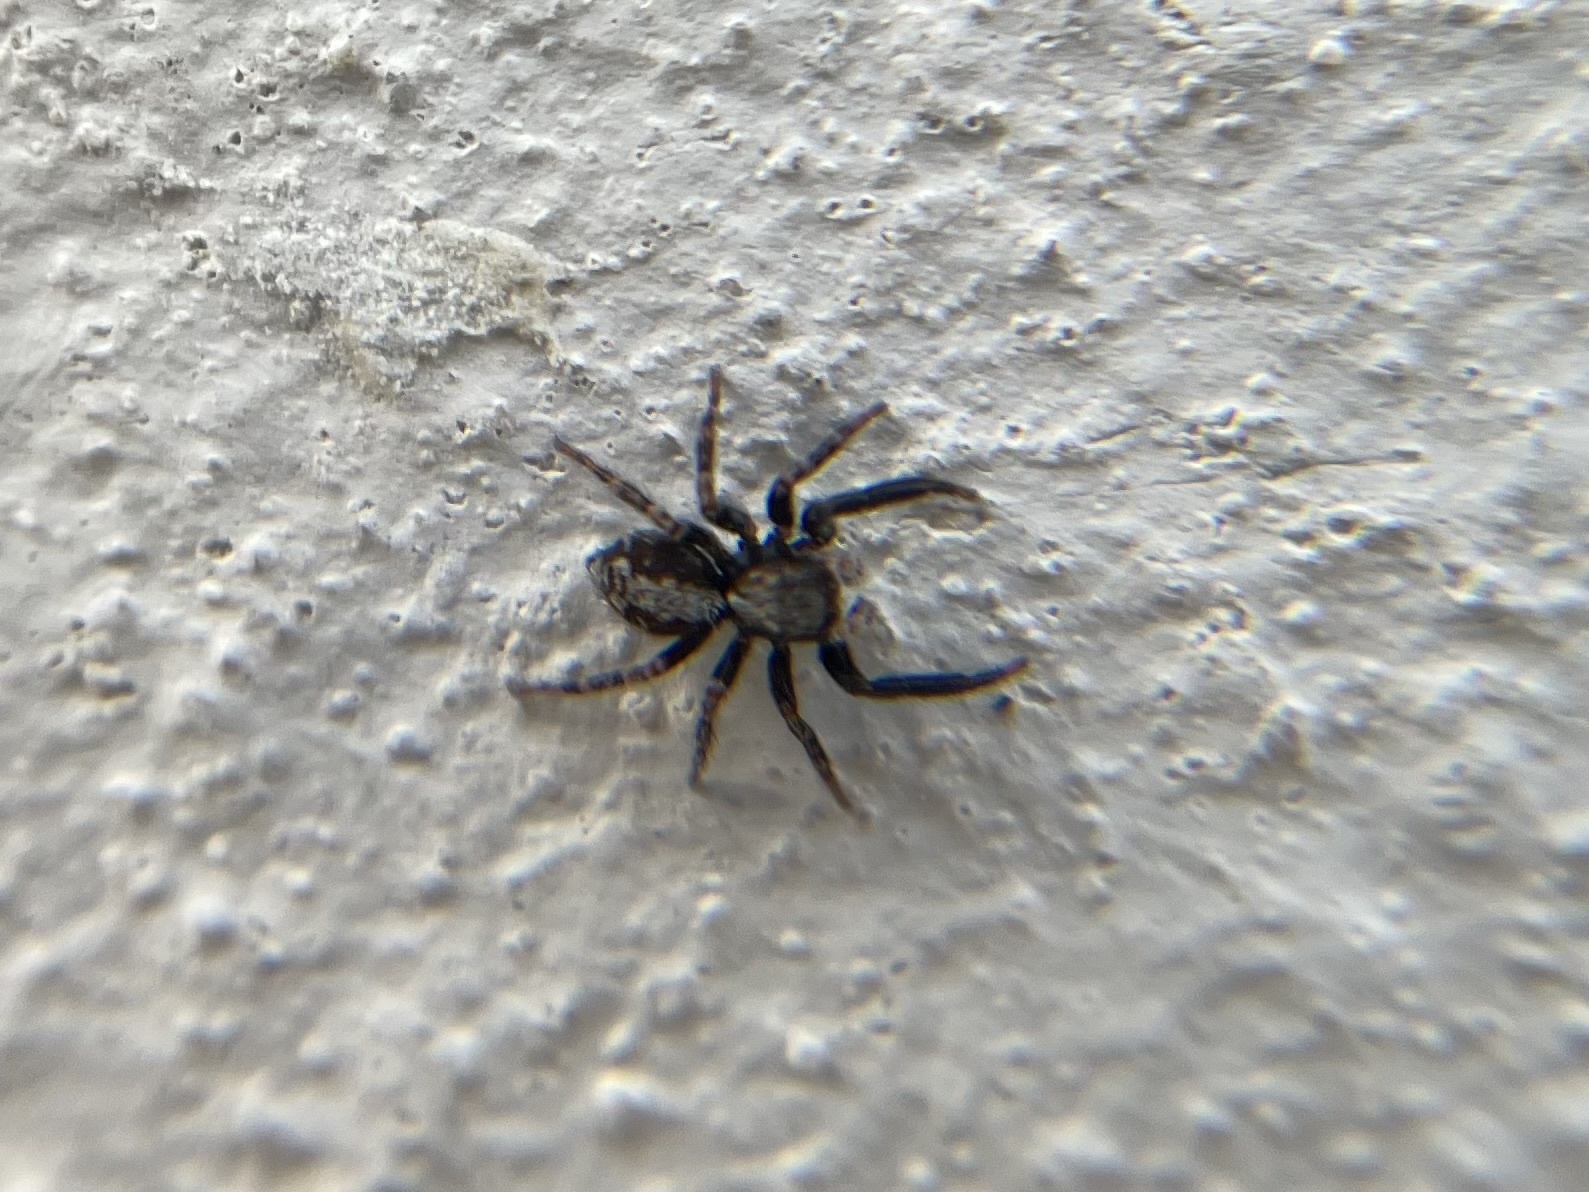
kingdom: Animalia
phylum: Arthropoda
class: Arachnida
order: Araneae
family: Salticidae
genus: Pseudeuophrys
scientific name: Pseudeuophrys lanigera
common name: Jumping spider
